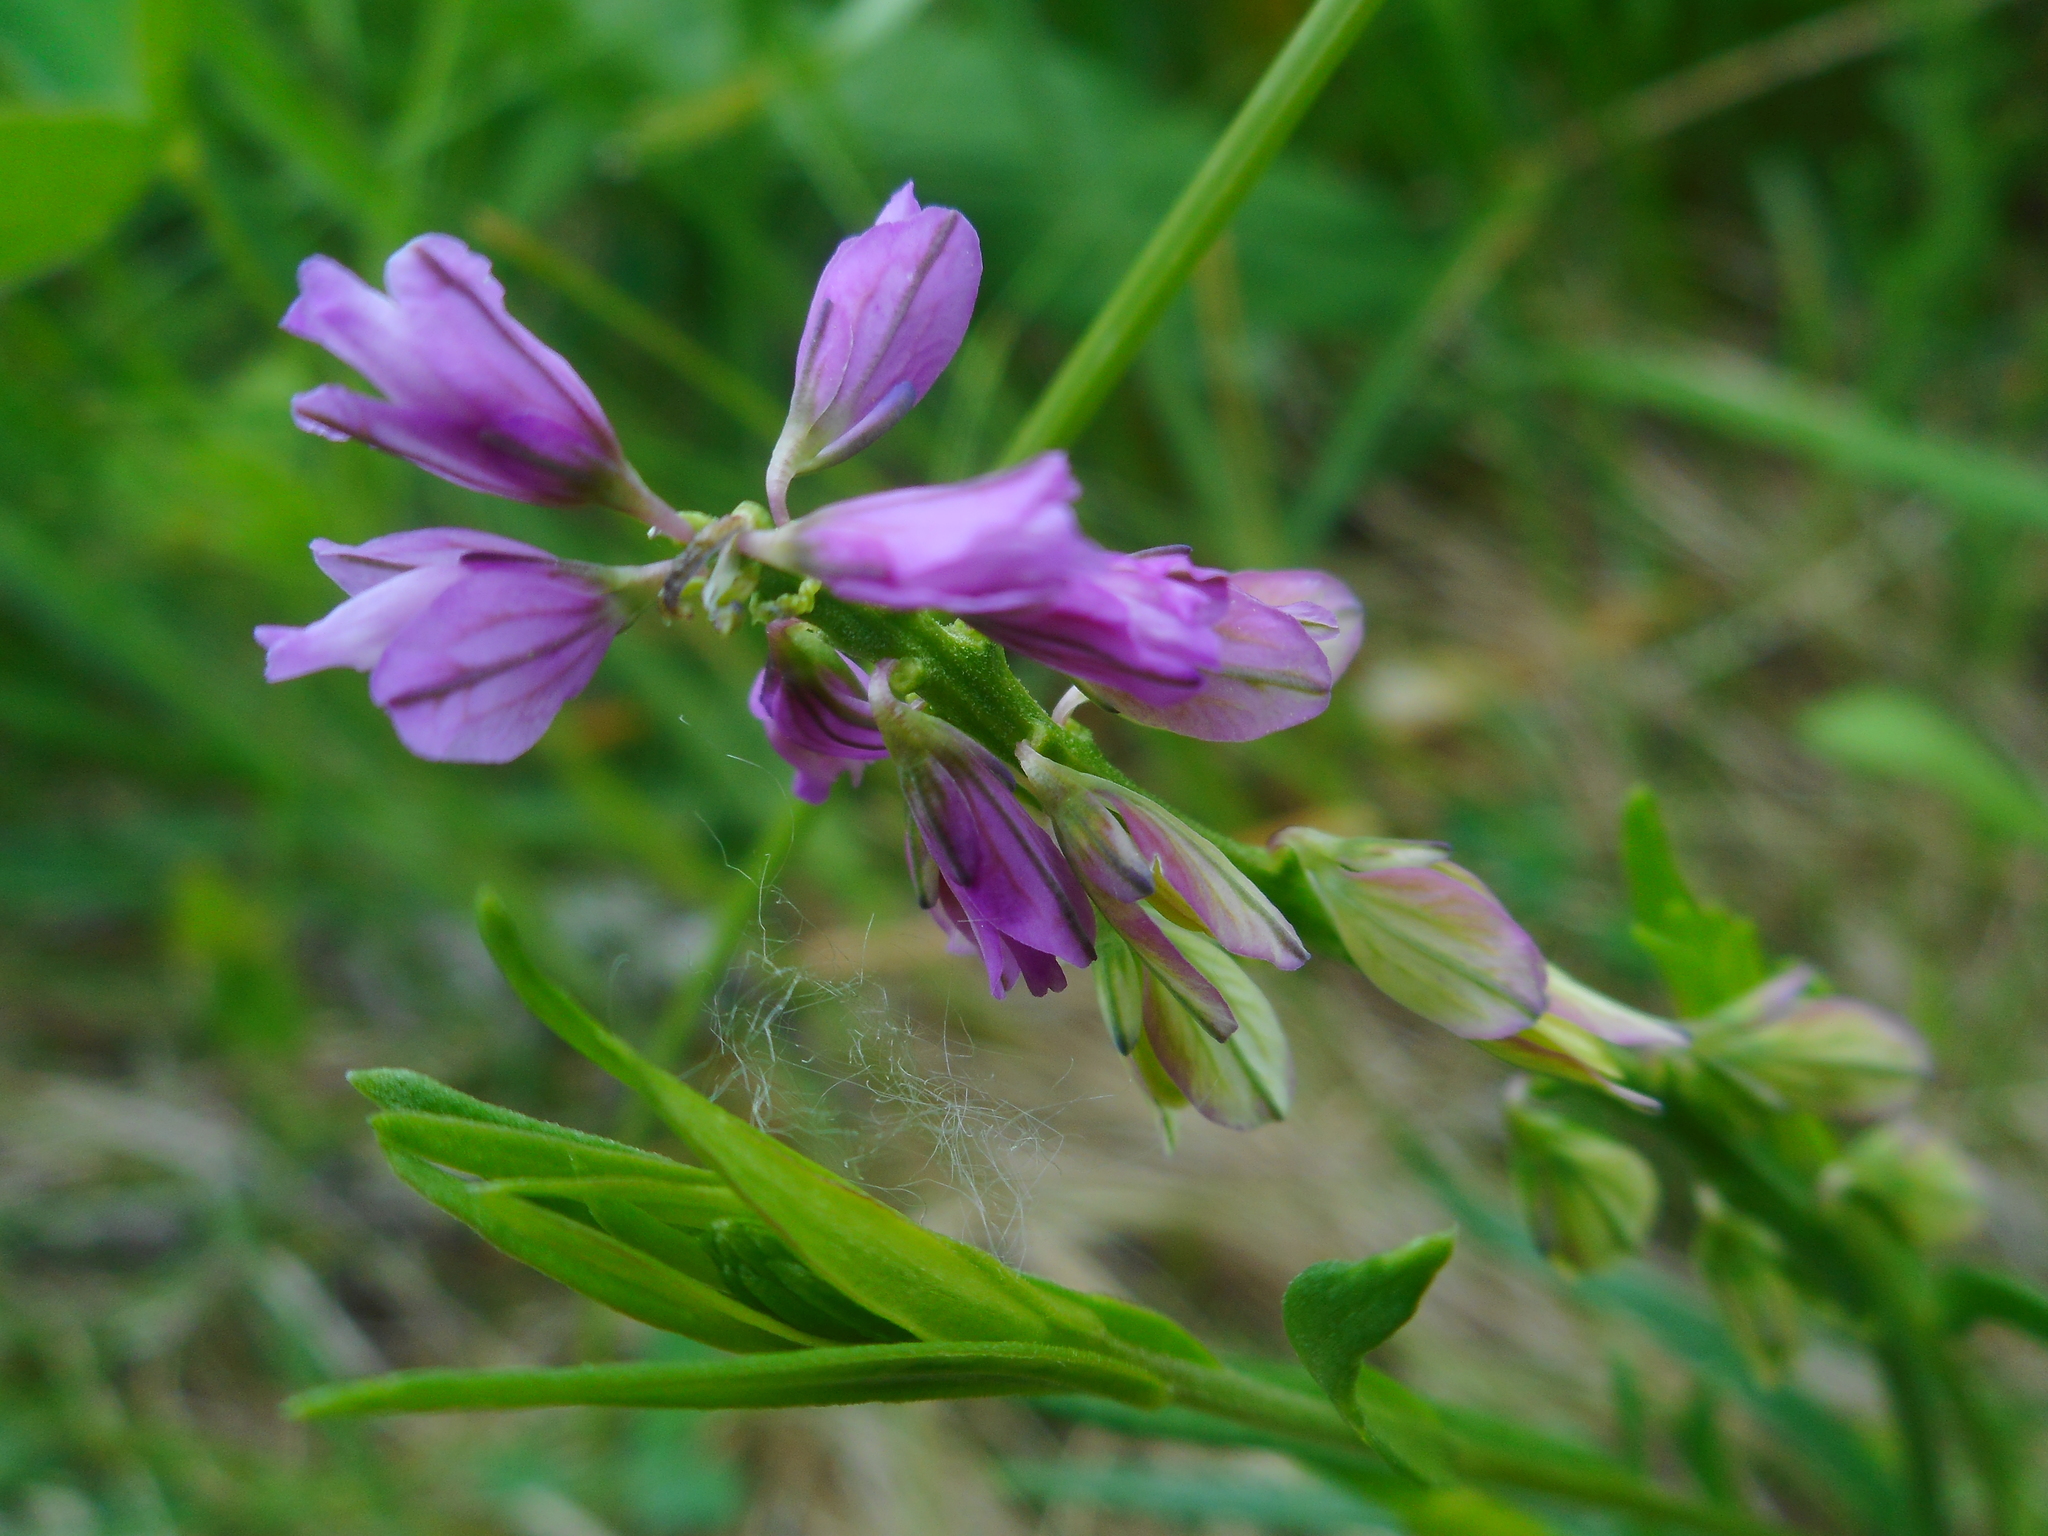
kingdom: Plantae
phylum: Tracheophyta
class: Magnoliopsida
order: Fabales
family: Polygalaceae
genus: Polygala
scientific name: Polygala comosa
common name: Tufted milkwort
